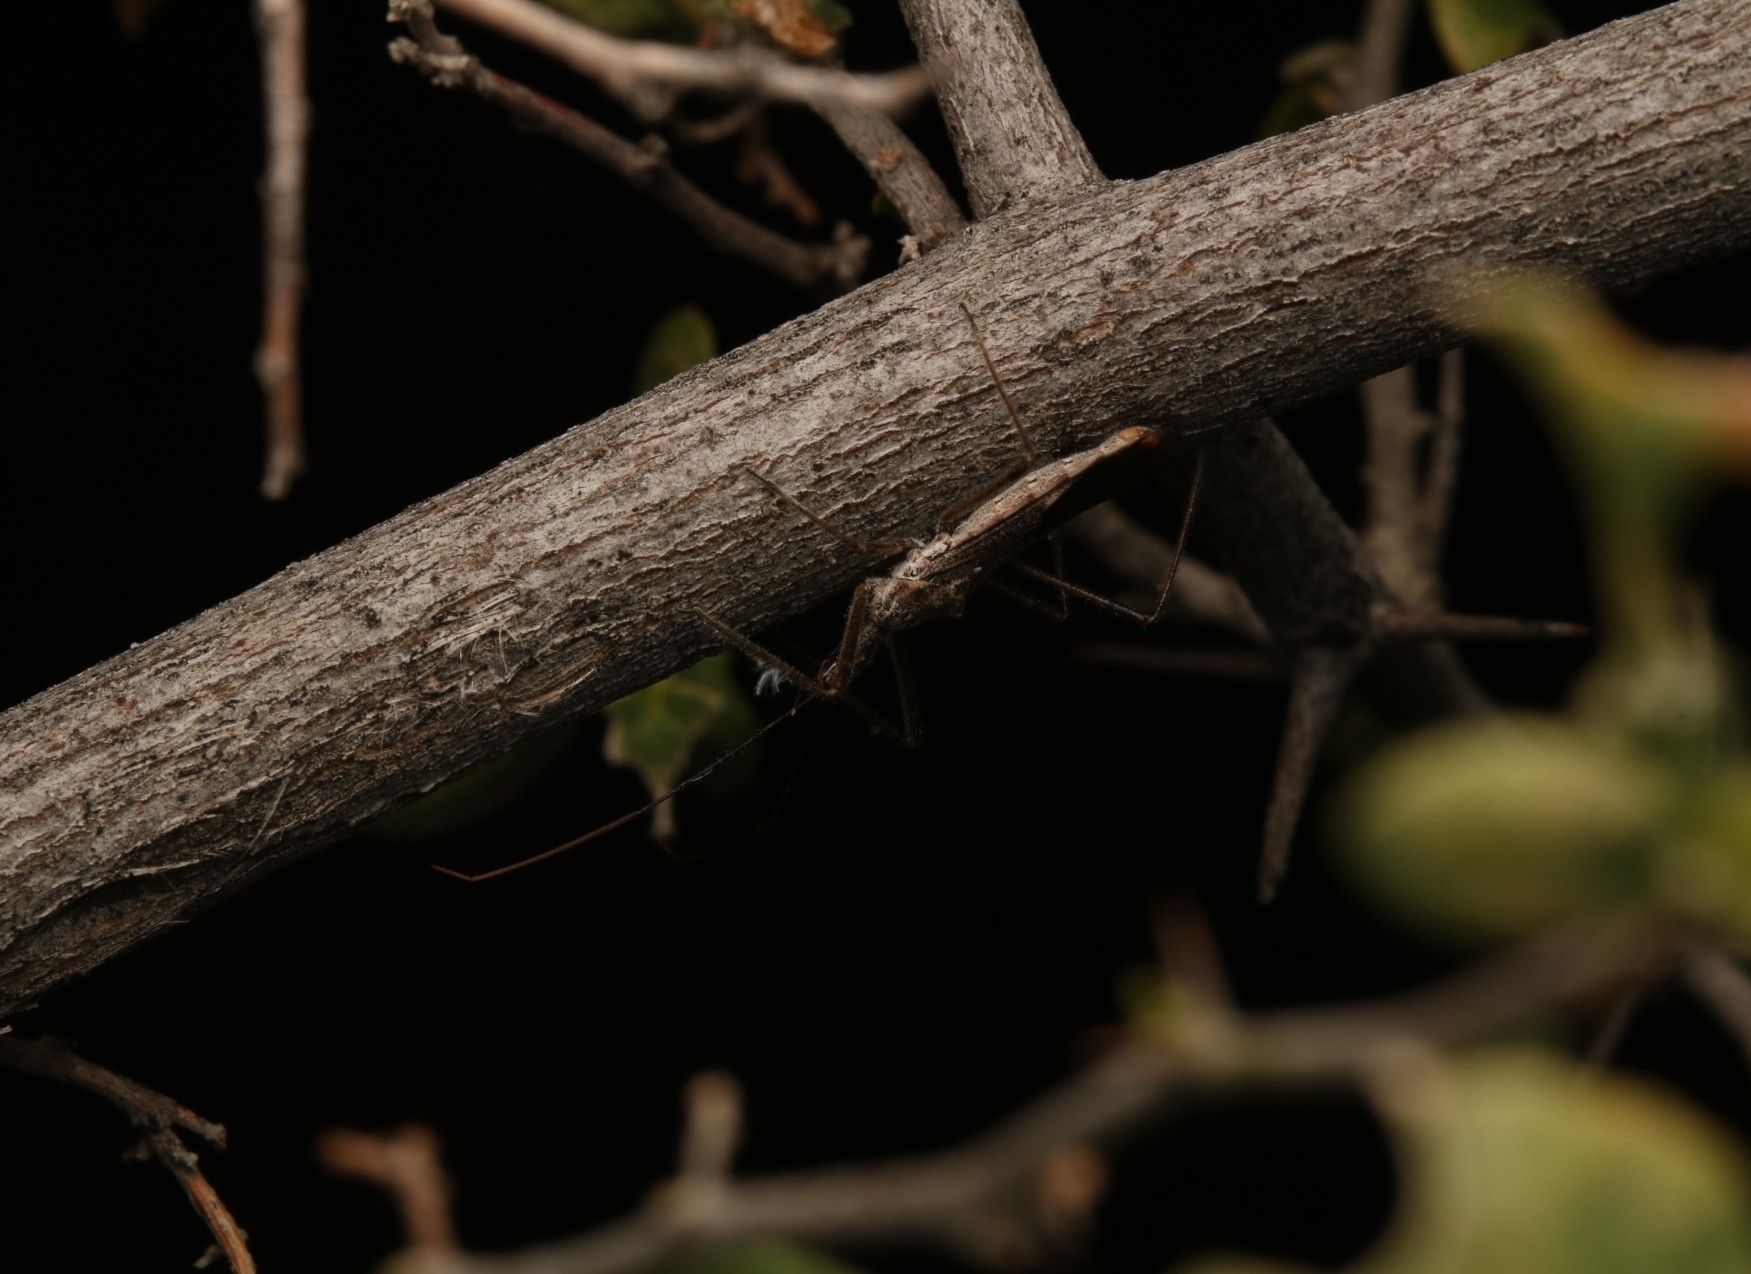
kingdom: Animalia
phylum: Arthropoda
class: Insecta
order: Hemiptera
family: Reduviidae
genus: Zelus
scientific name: Zelus tetracanthus
